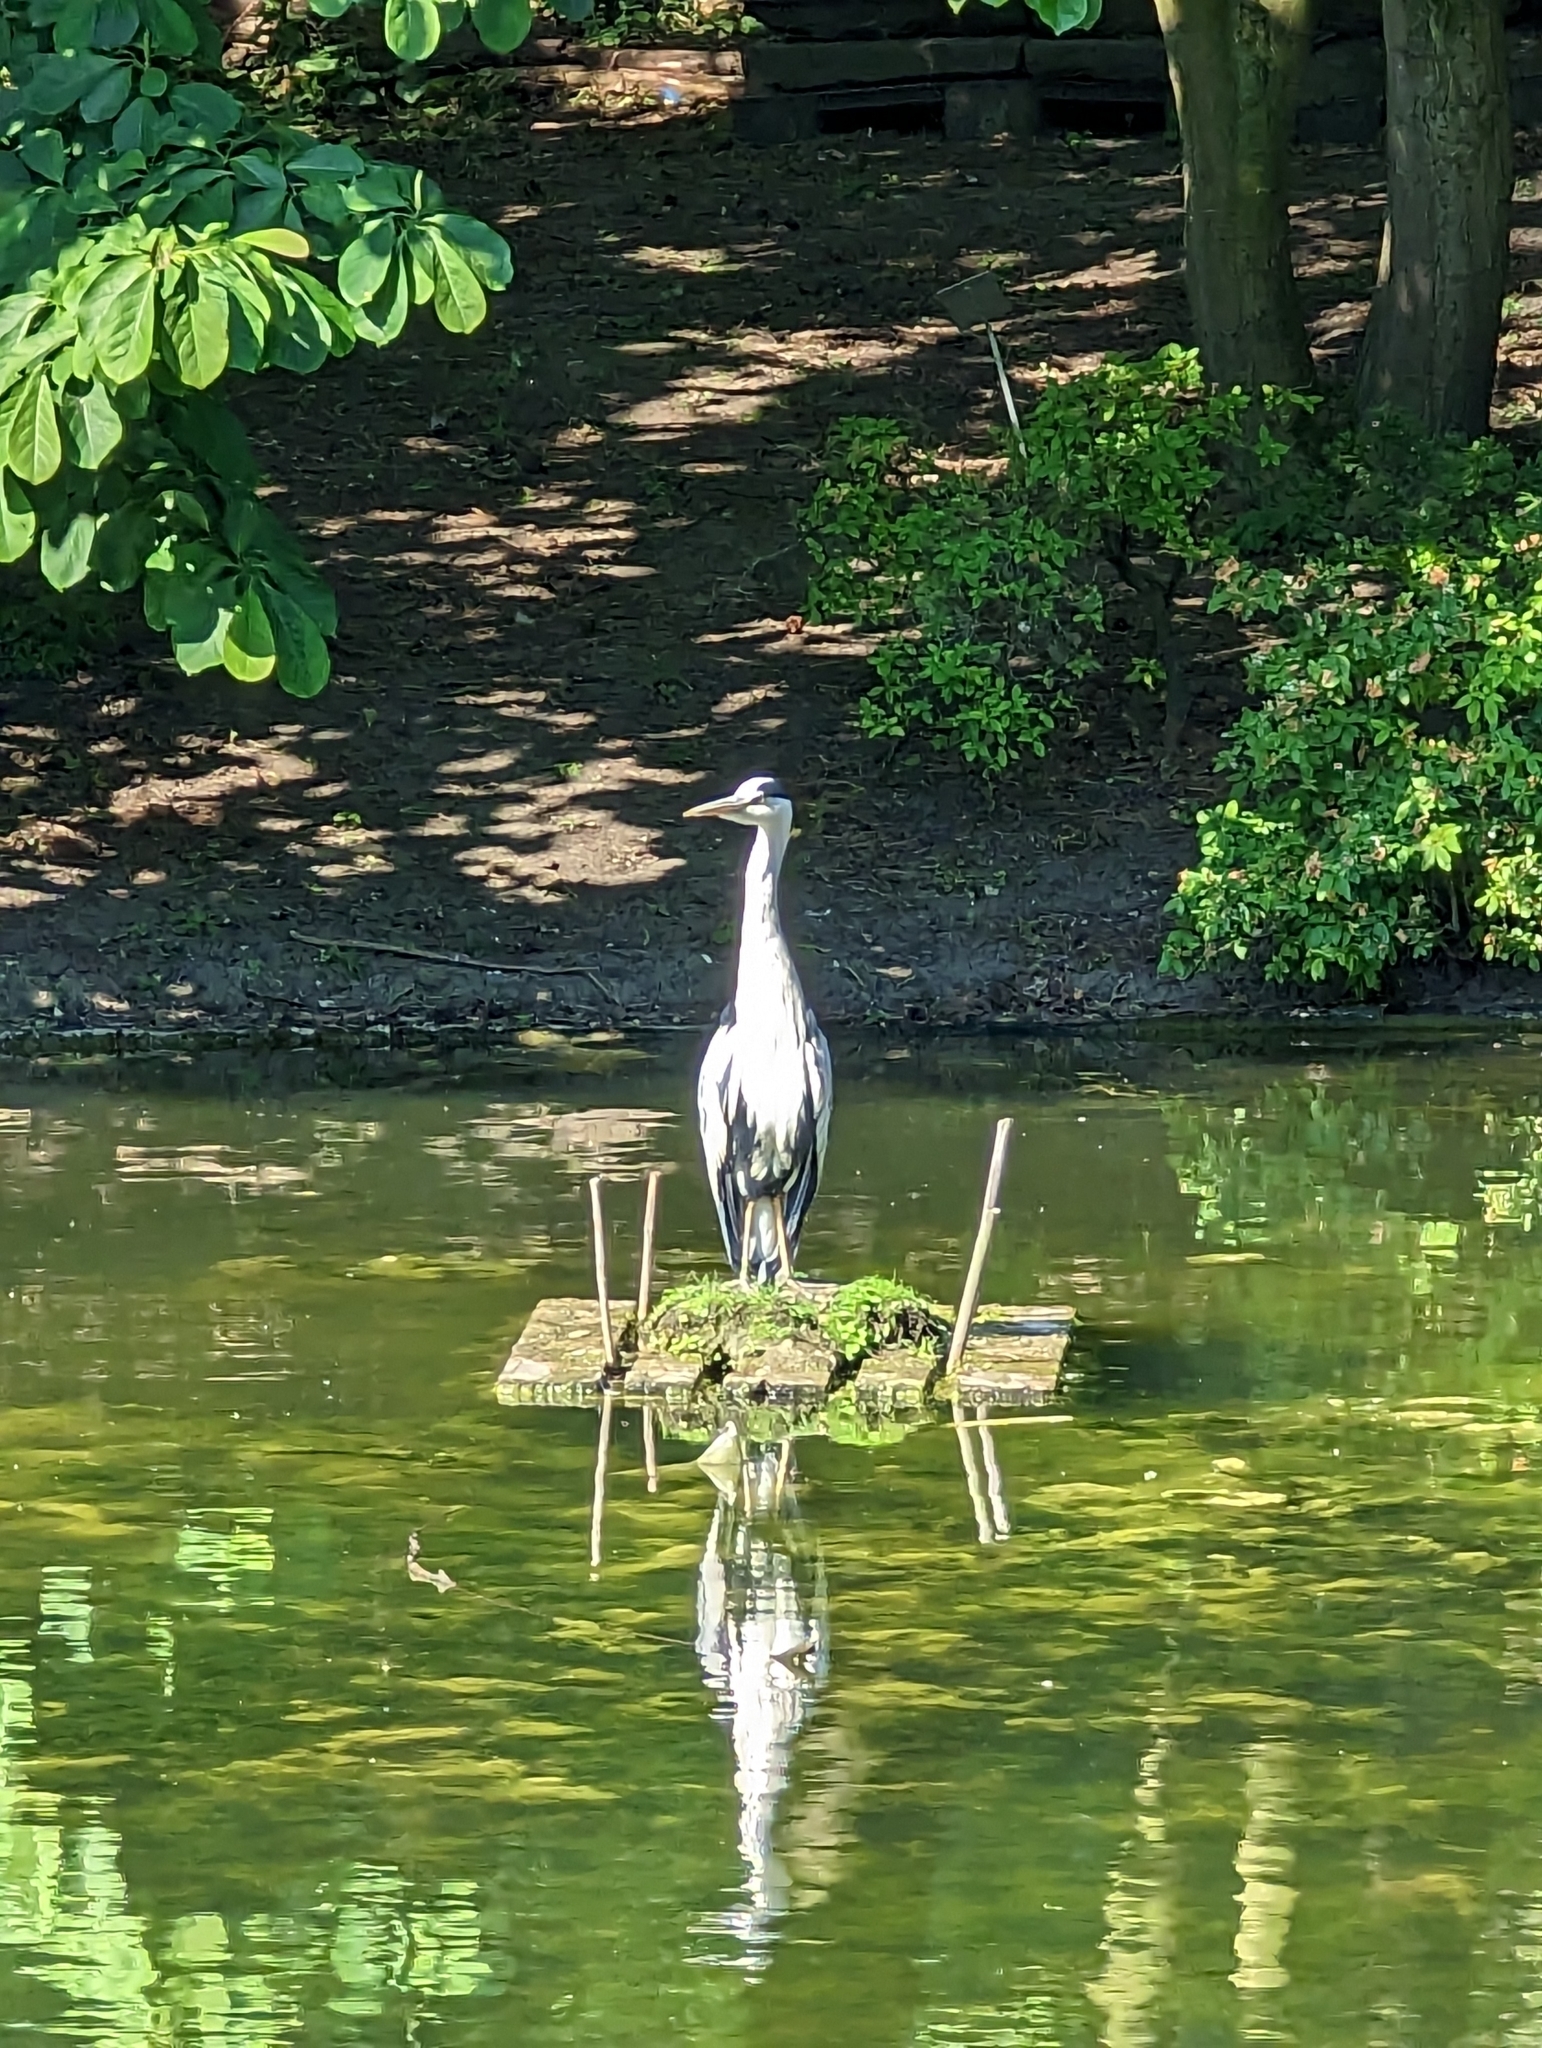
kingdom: Animalia
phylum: Chordata
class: Aves
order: Pelecaniformes
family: Ardeidae
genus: Ardea
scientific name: Ardea cinerea
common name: Grey heron
